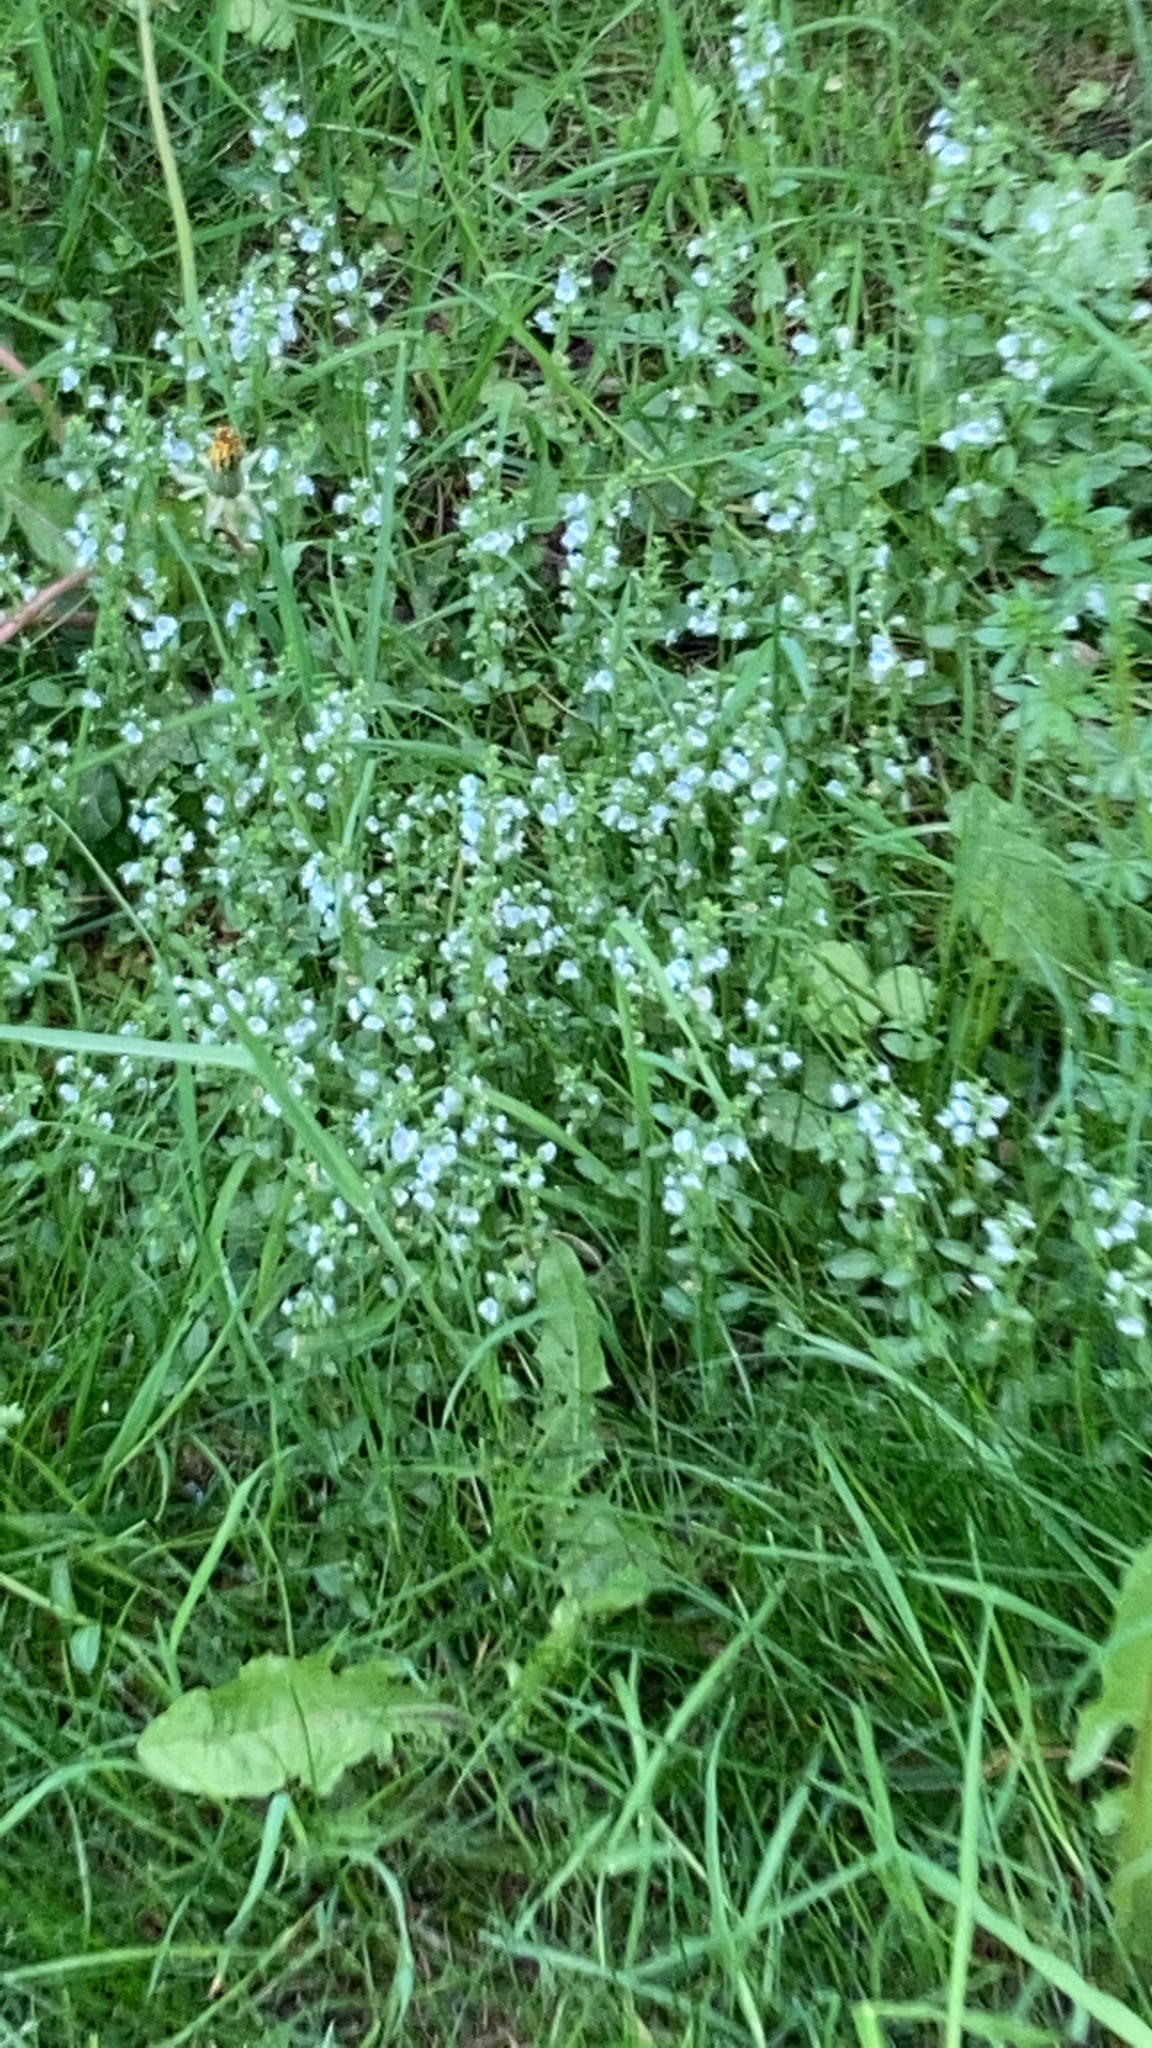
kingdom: Plantae
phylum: Tracheophyta
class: Magnoliopsida
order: Lamiales
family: Plantaginaceae
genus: Veronica
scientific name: Veronica serpyllifolia
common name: Thyme-leaved speedwell
